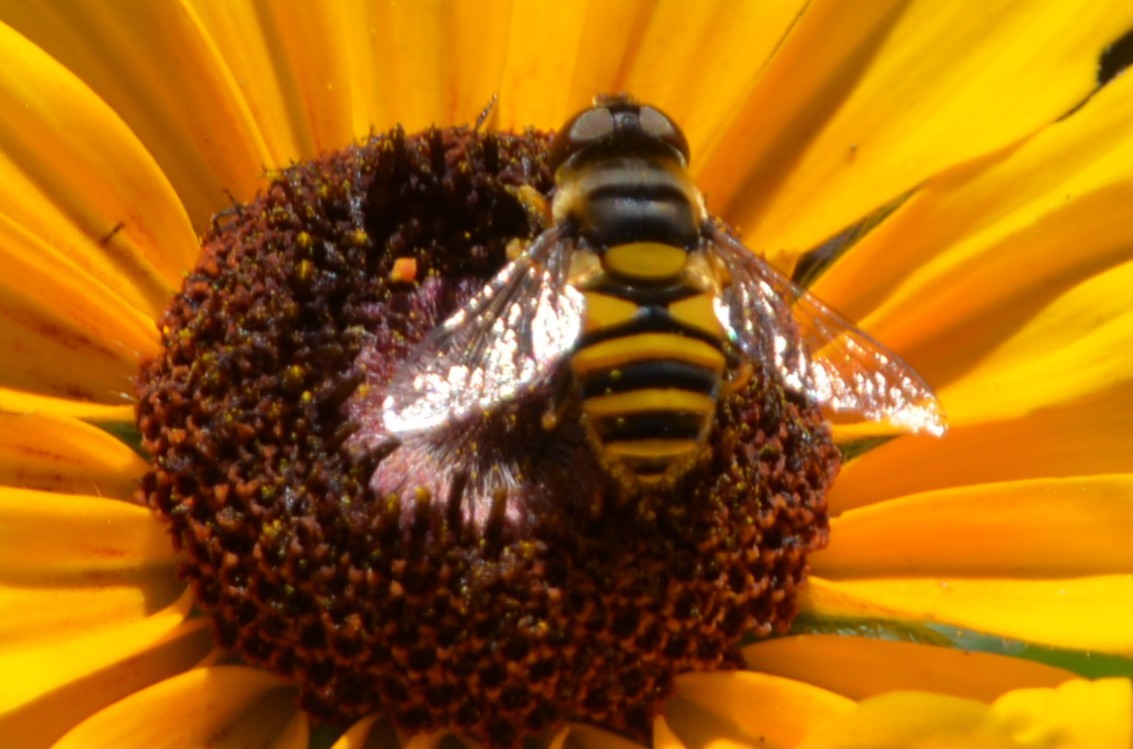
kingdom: Animalia
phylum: Arthropoda
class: Insecta
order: Diptera
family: Syrphidae
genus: Eristalis
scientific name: Eristalis transversa
